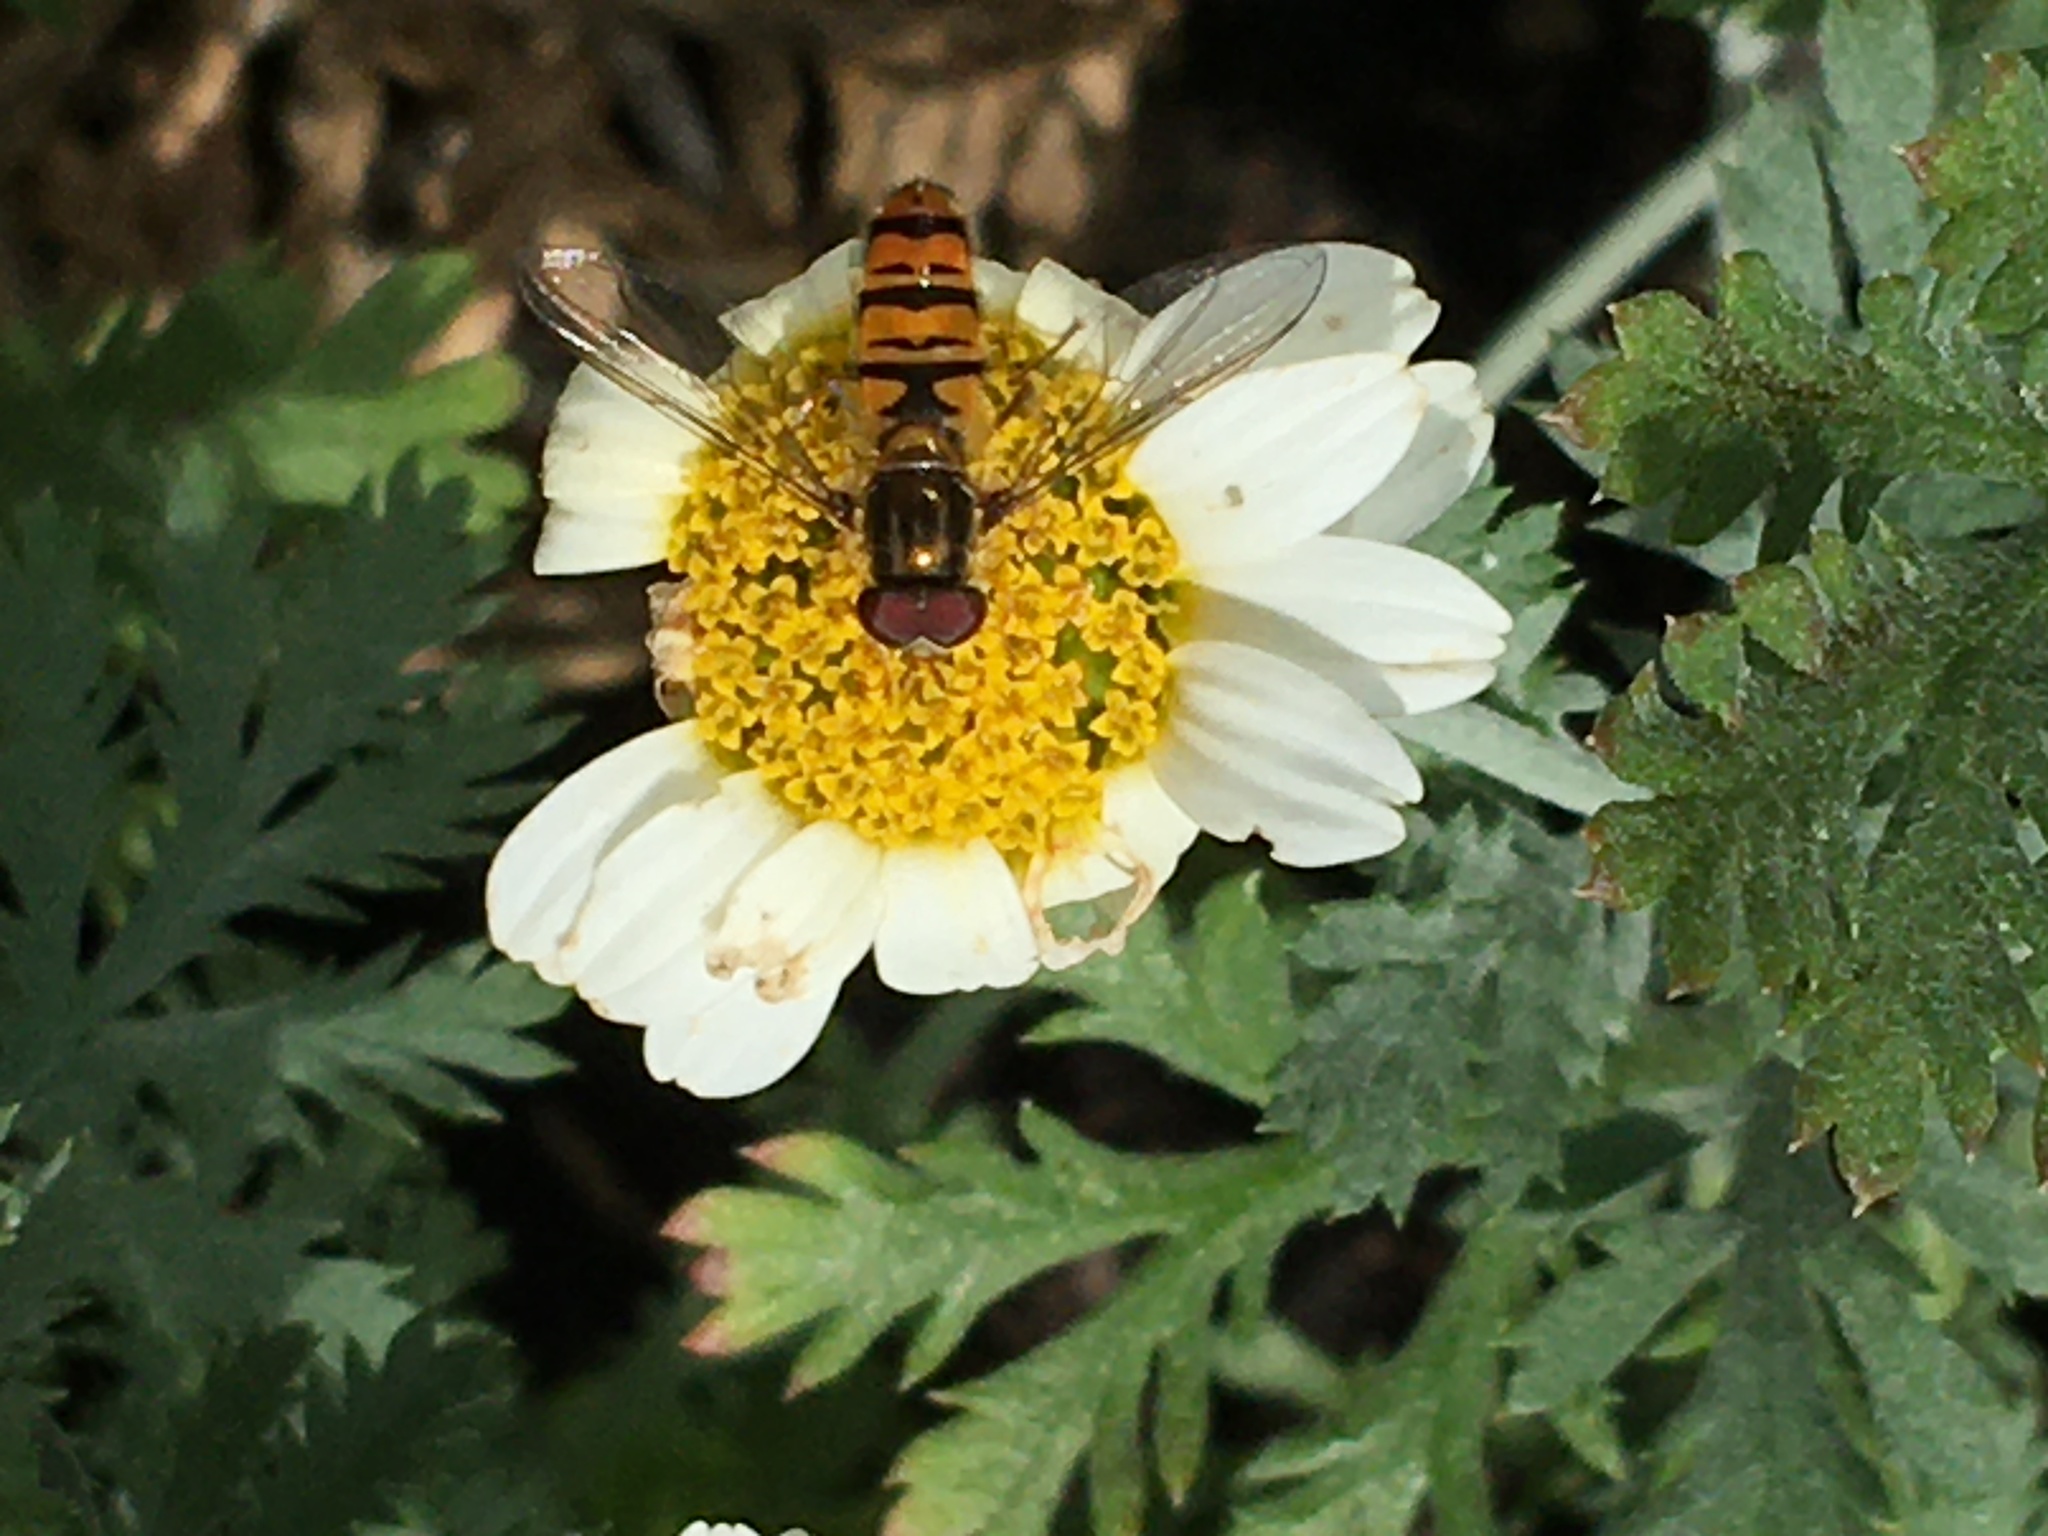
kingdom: Animalia
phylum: Arthropoda
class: Insecta
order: Diptera
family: Syrphidae
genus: Episyrphus
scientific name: Episyrphus balteatus
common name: Marmalade hoverfly
